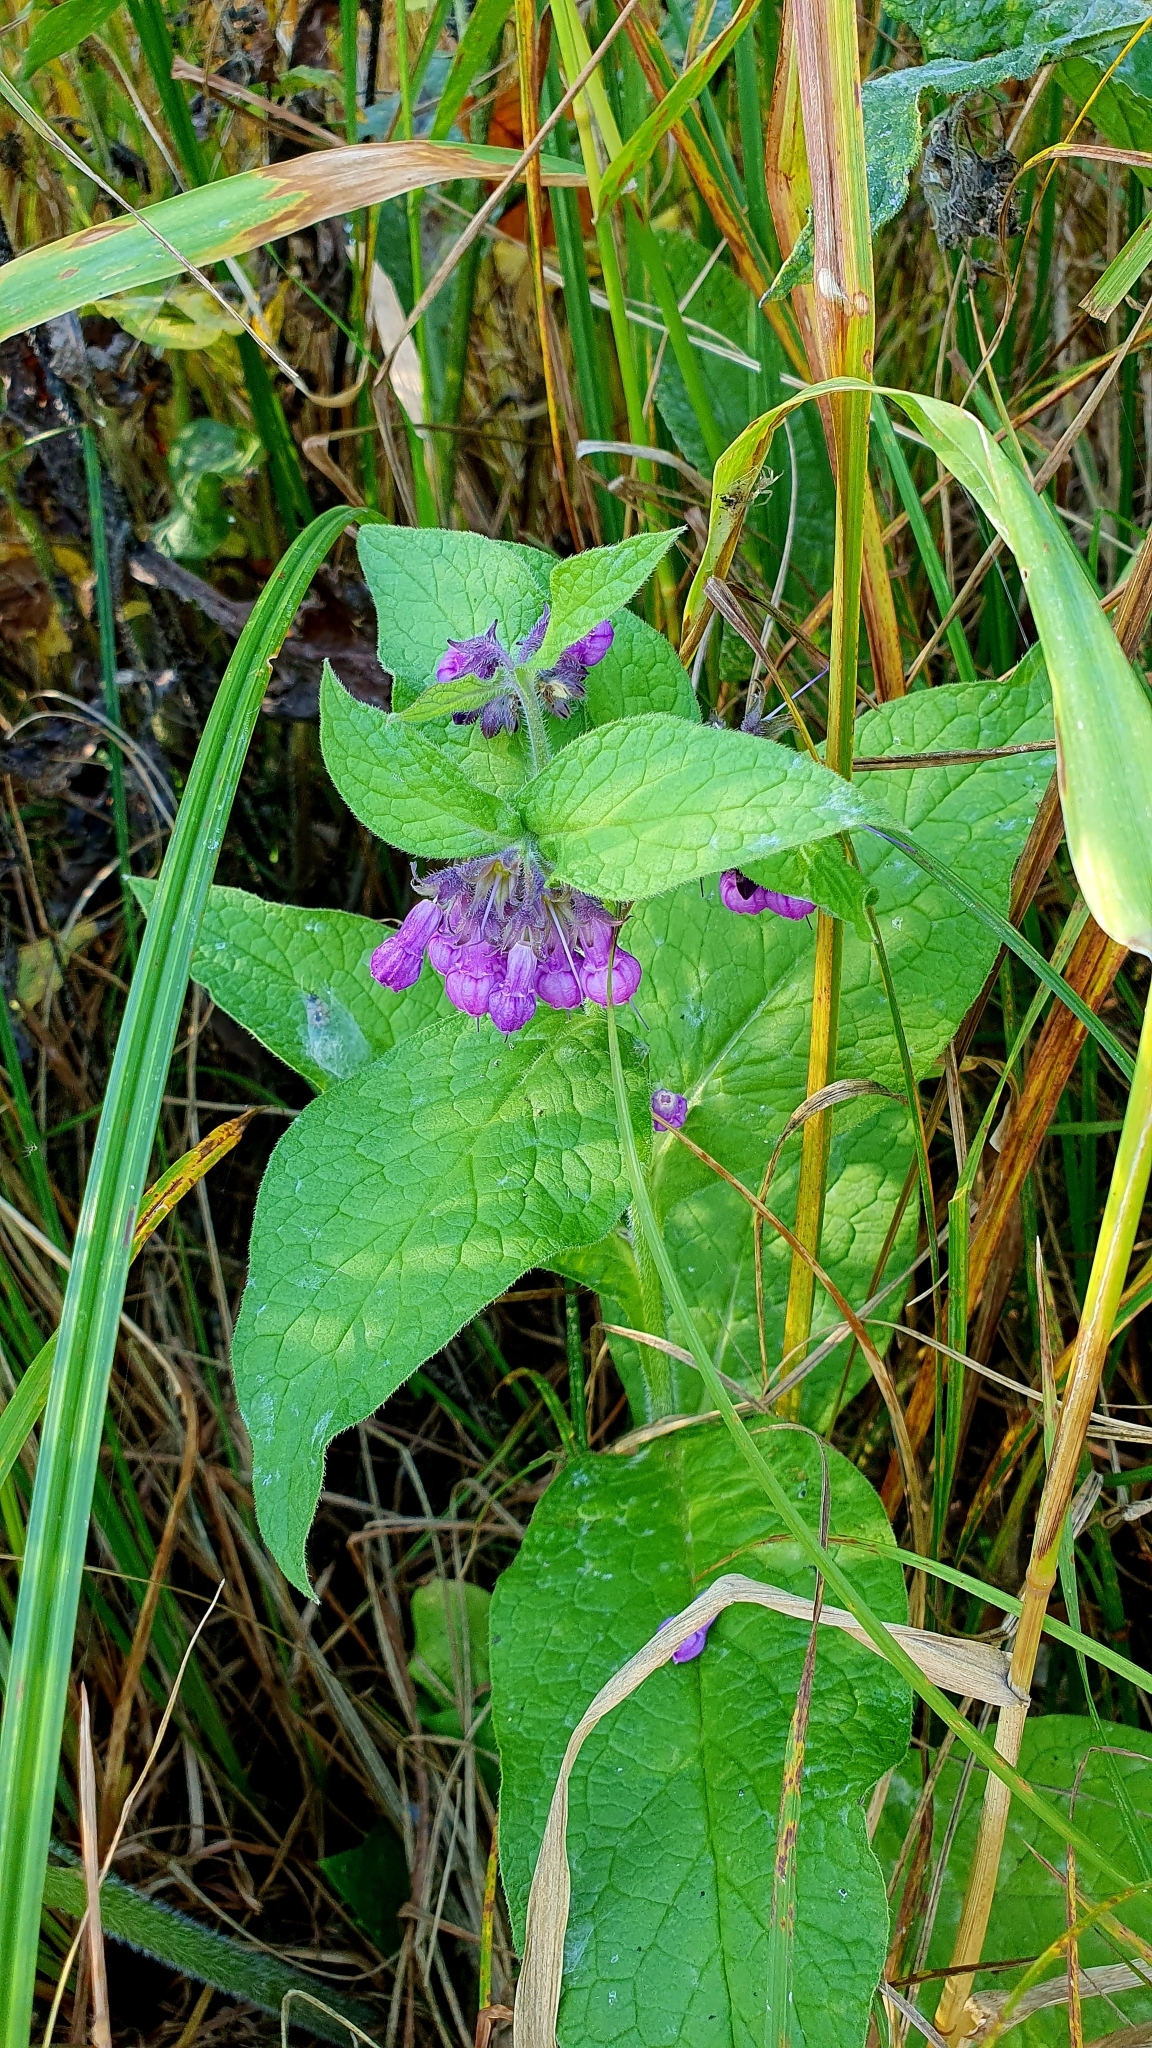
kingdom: Plantae
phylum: Tracheophyta
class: Magnoliopsida
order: Boraginales
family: Boraginaceae
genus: Symphytum
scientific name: Symphytum officinale
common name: Common comfrey
